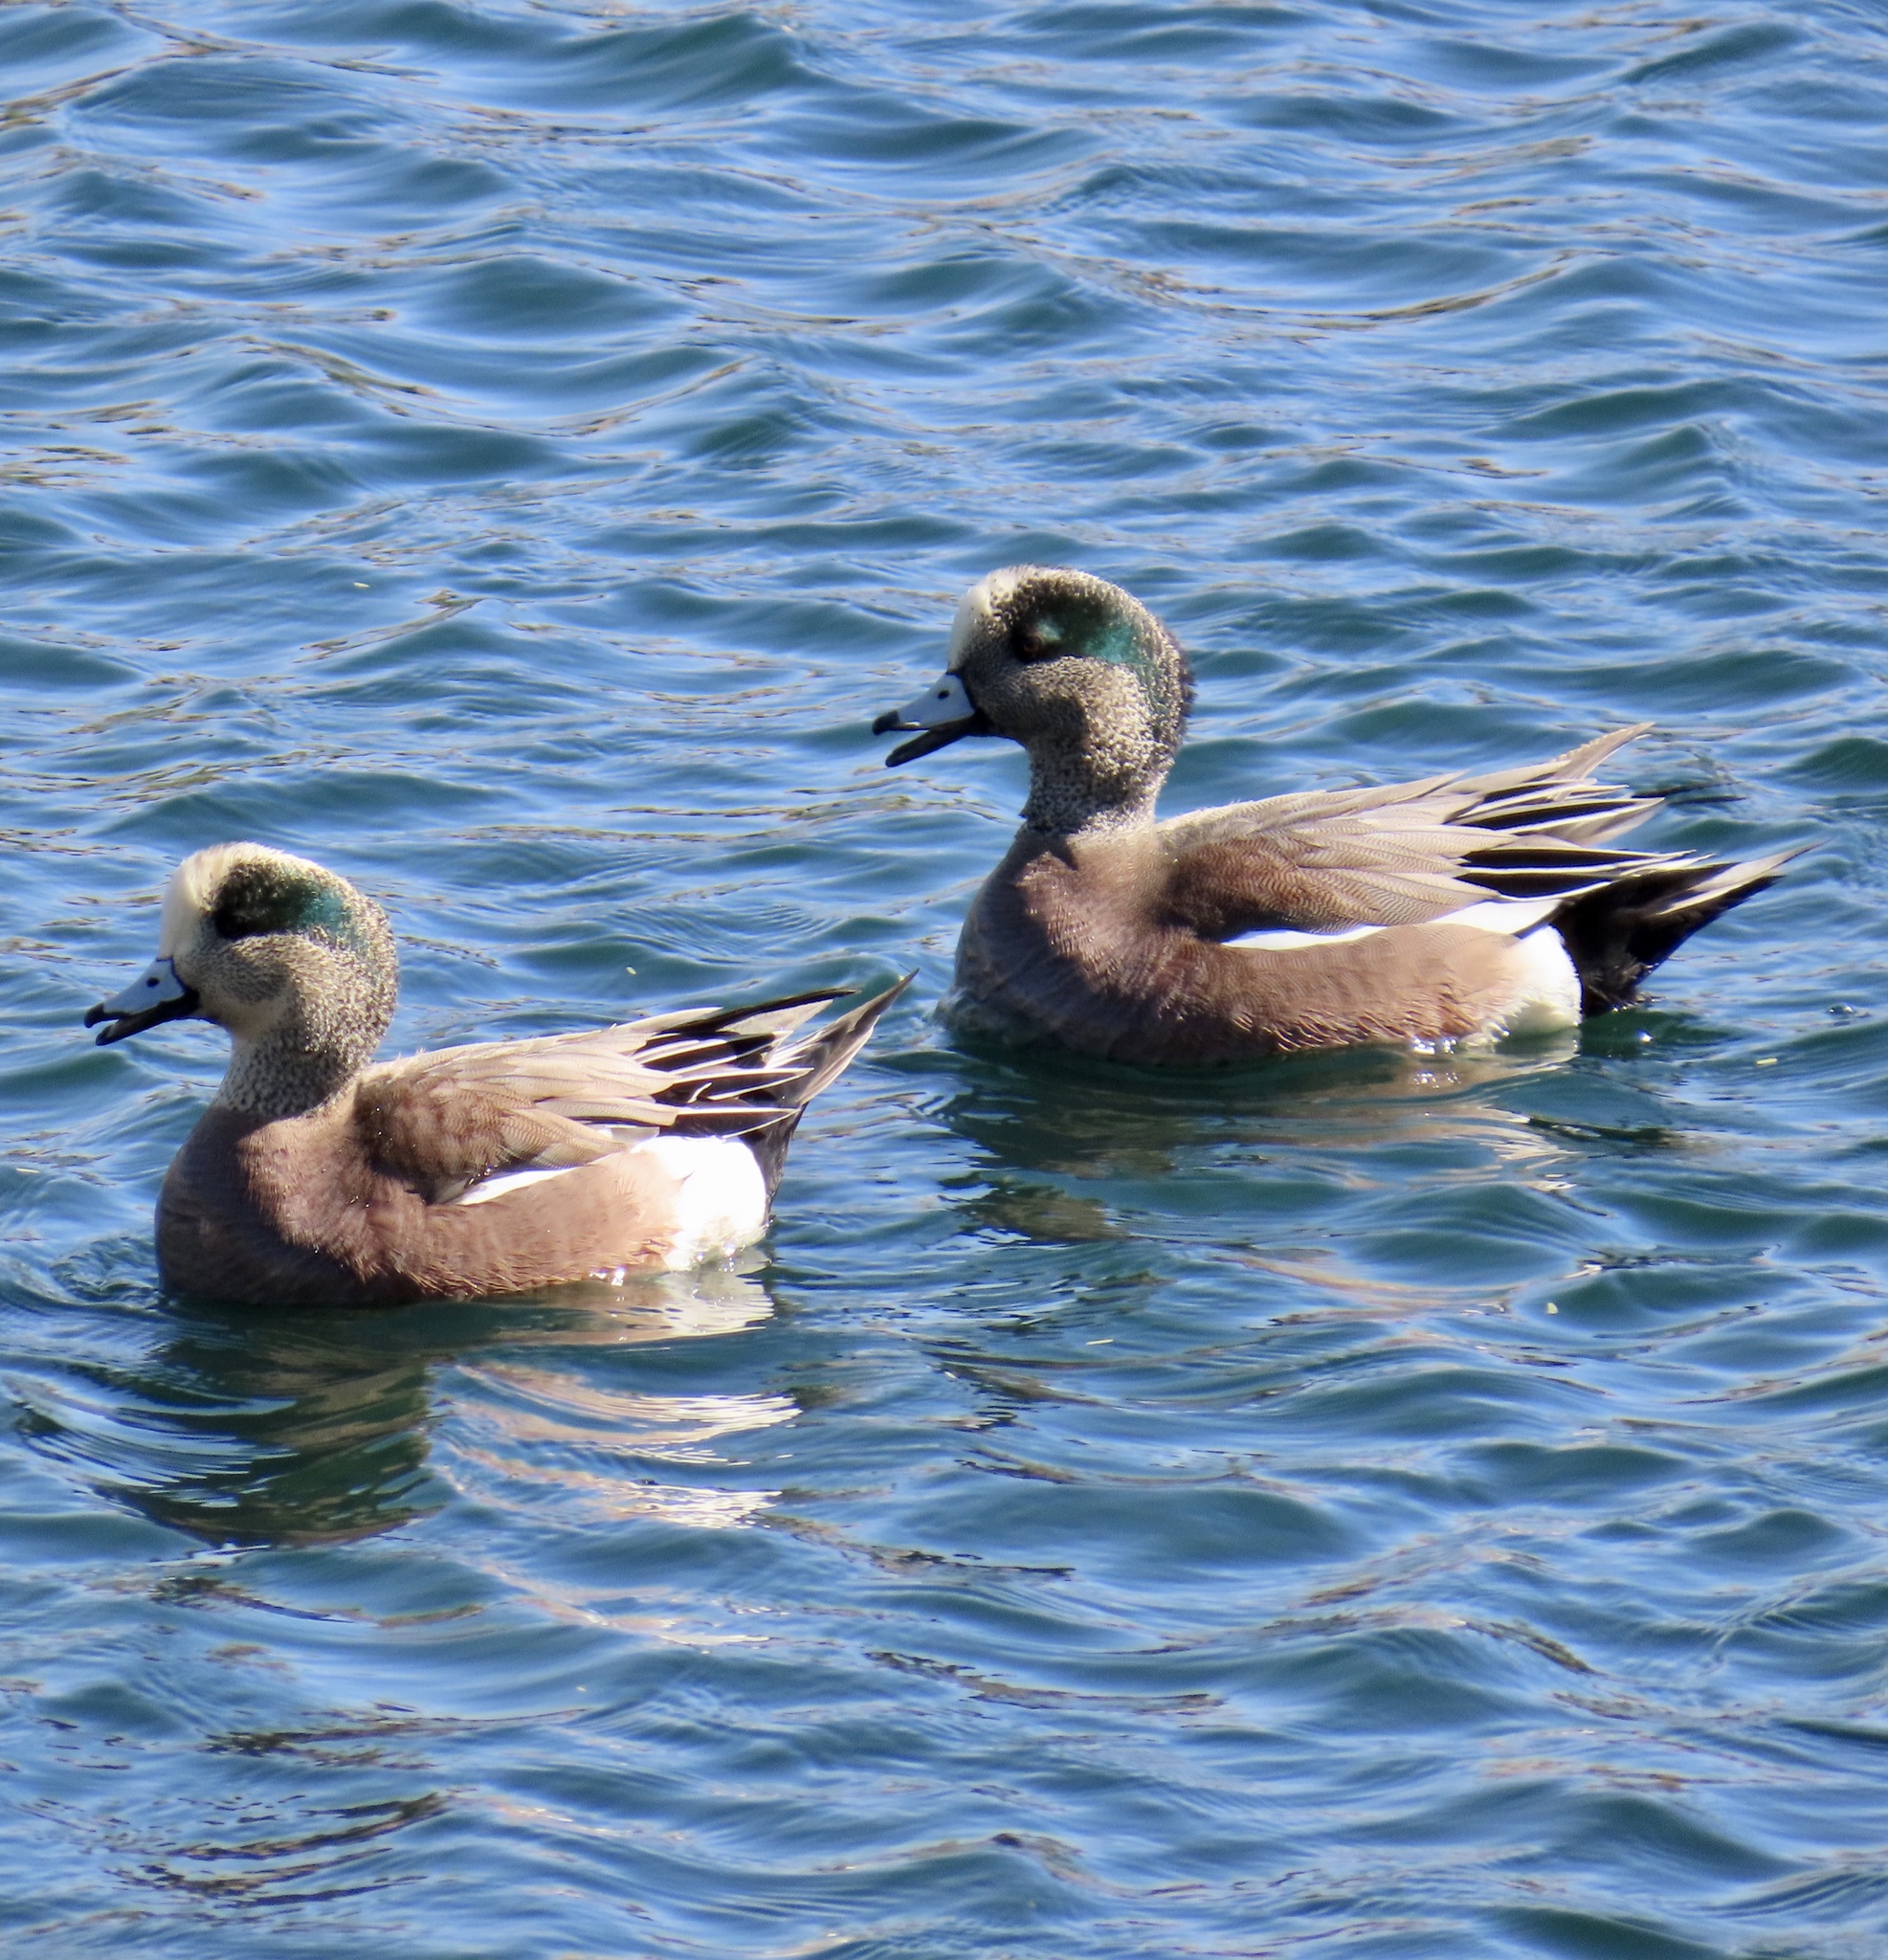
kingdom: Animalia
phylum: Chordata
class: Aves
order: Anseriformes
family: Anatidae
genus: Mareca
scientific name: Mareca americana
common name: American wigeon
